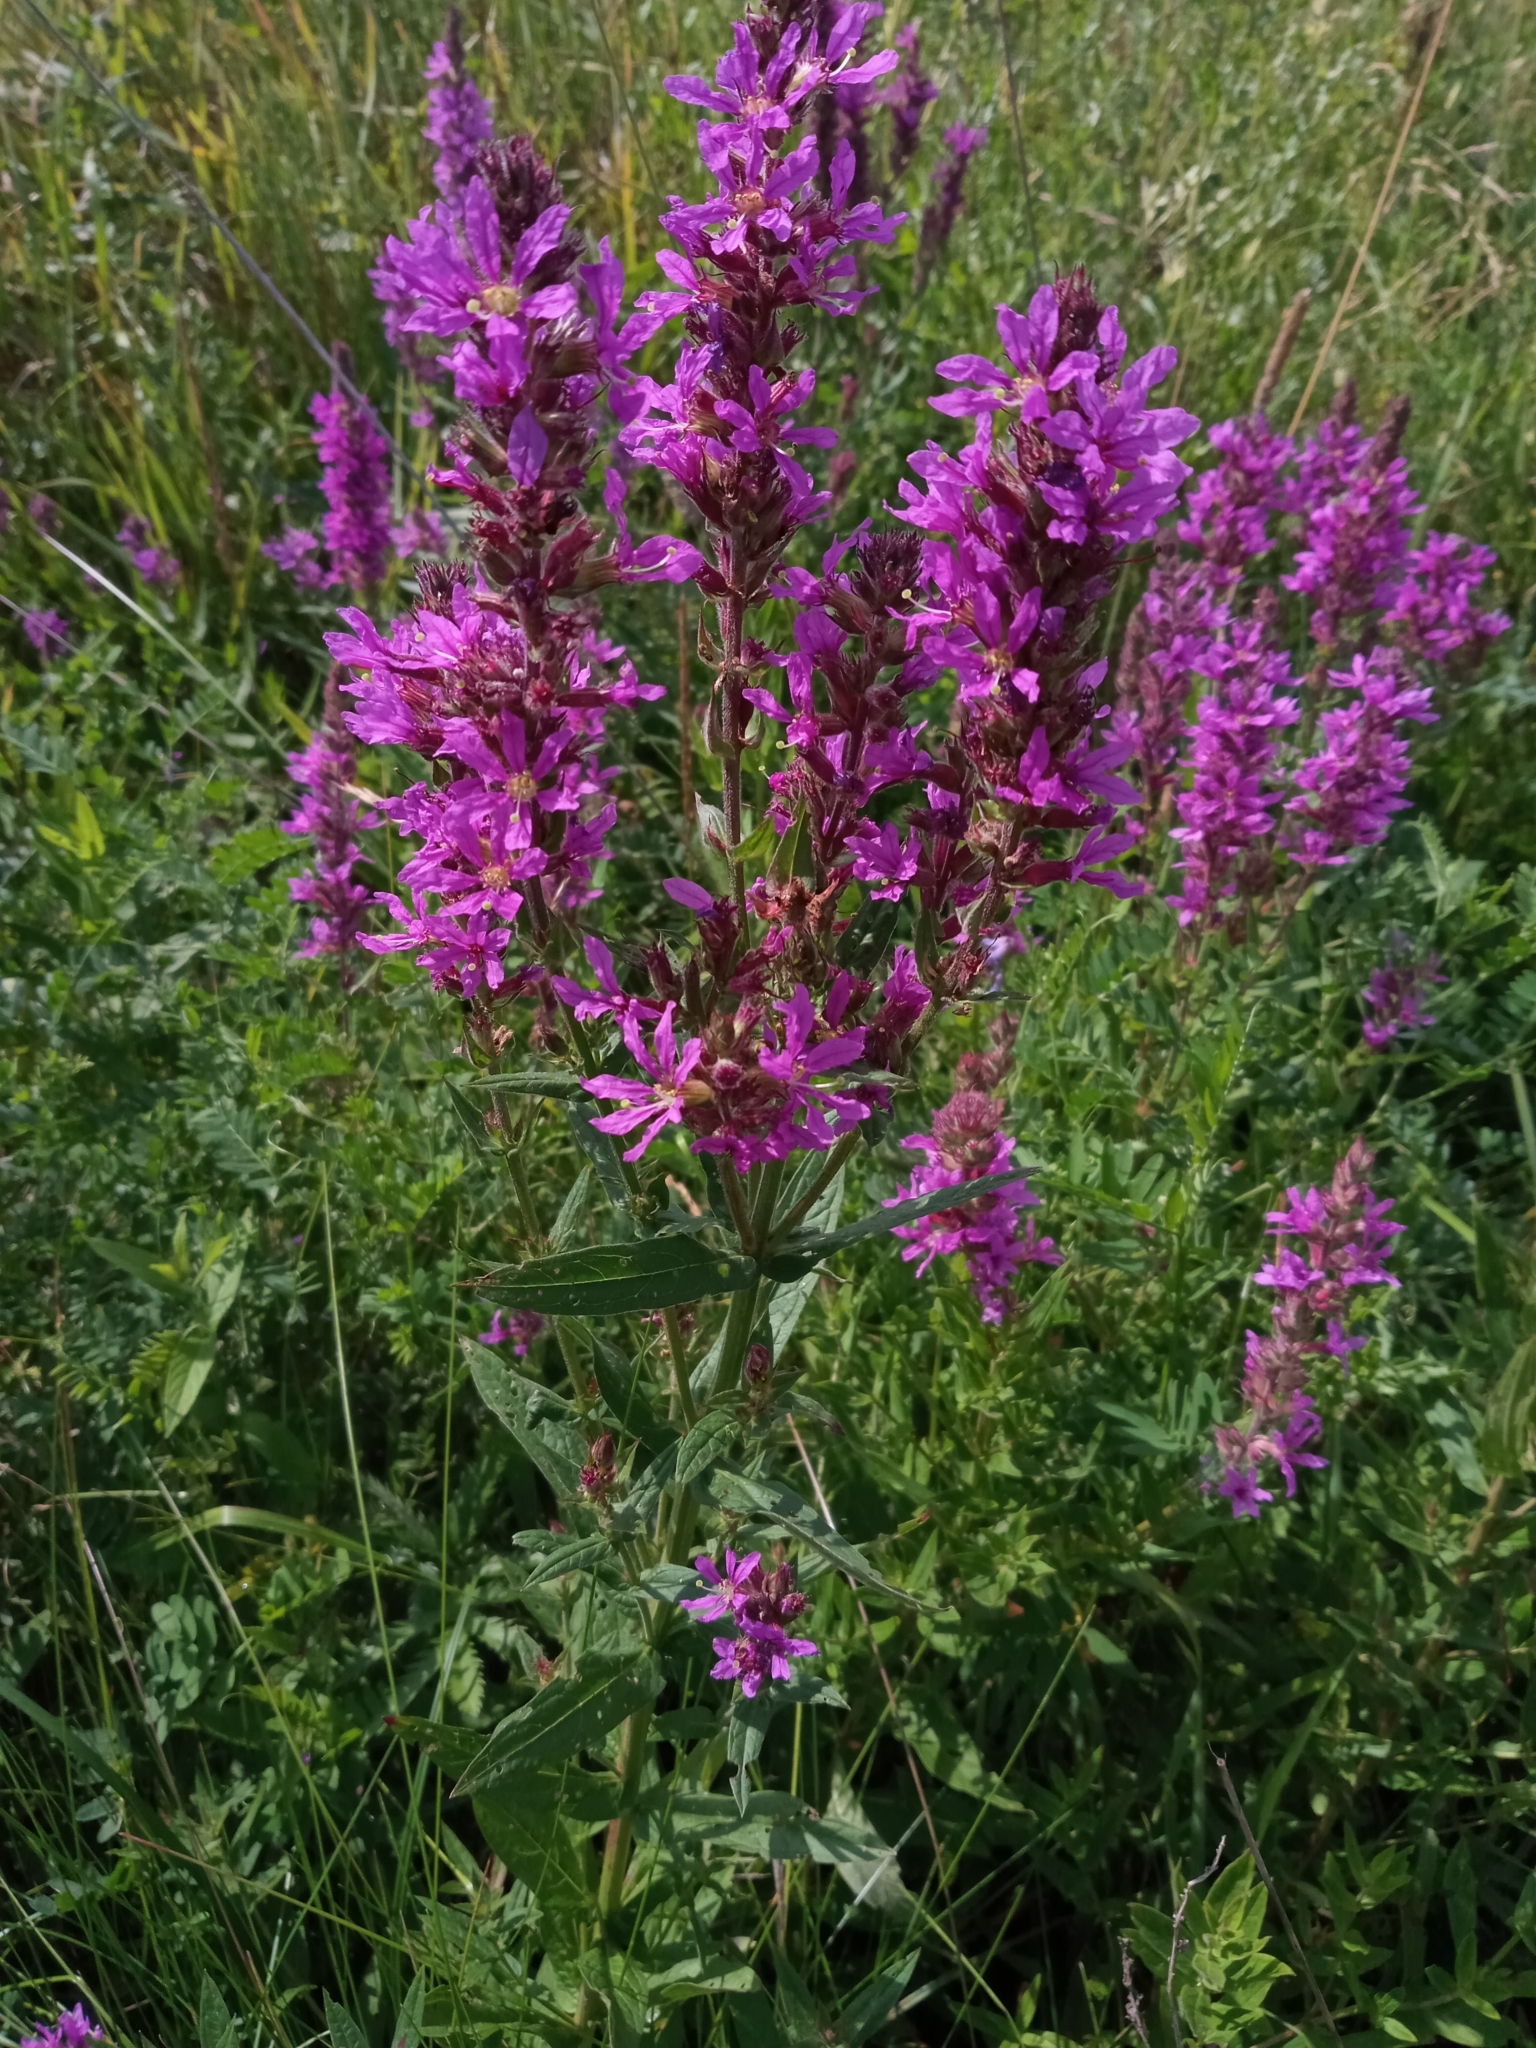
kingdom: Plantae
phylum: Tracheophyta
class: Magnoliopsida
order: Myrtales
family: Lythraceae
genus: Lythrum
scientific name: Lythrum salicaria
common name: Purple loosestrife
